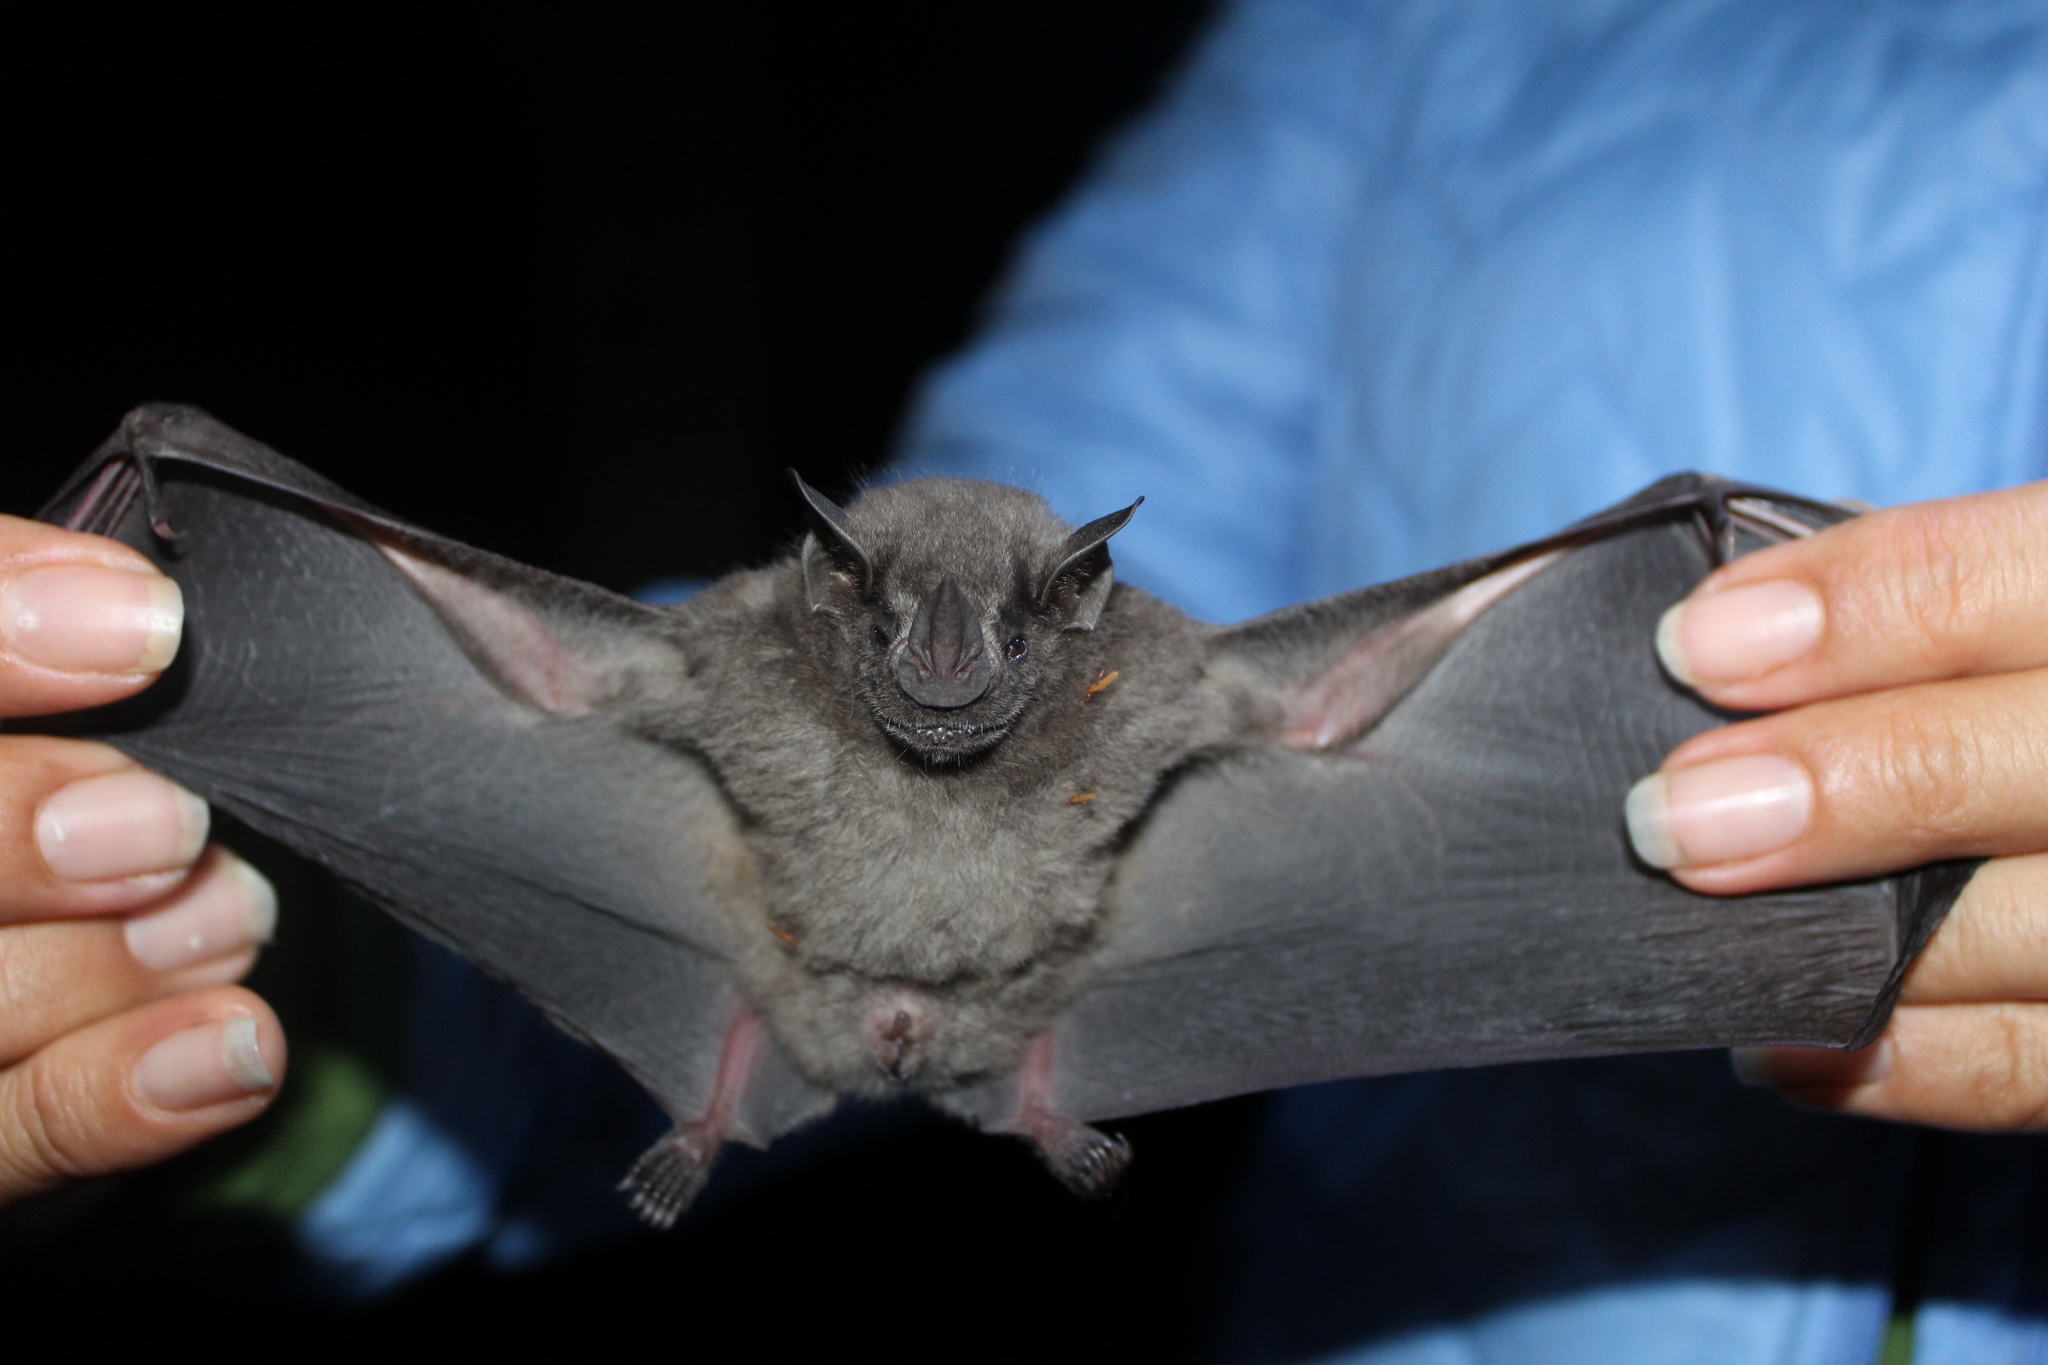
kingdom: Animalia
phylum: Chordata
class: Mammalia
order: Chiroptera
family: Phyllostomidae
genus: Artibeus
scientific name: Artibeus aztecus
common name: Aztec fruit-eating bat
